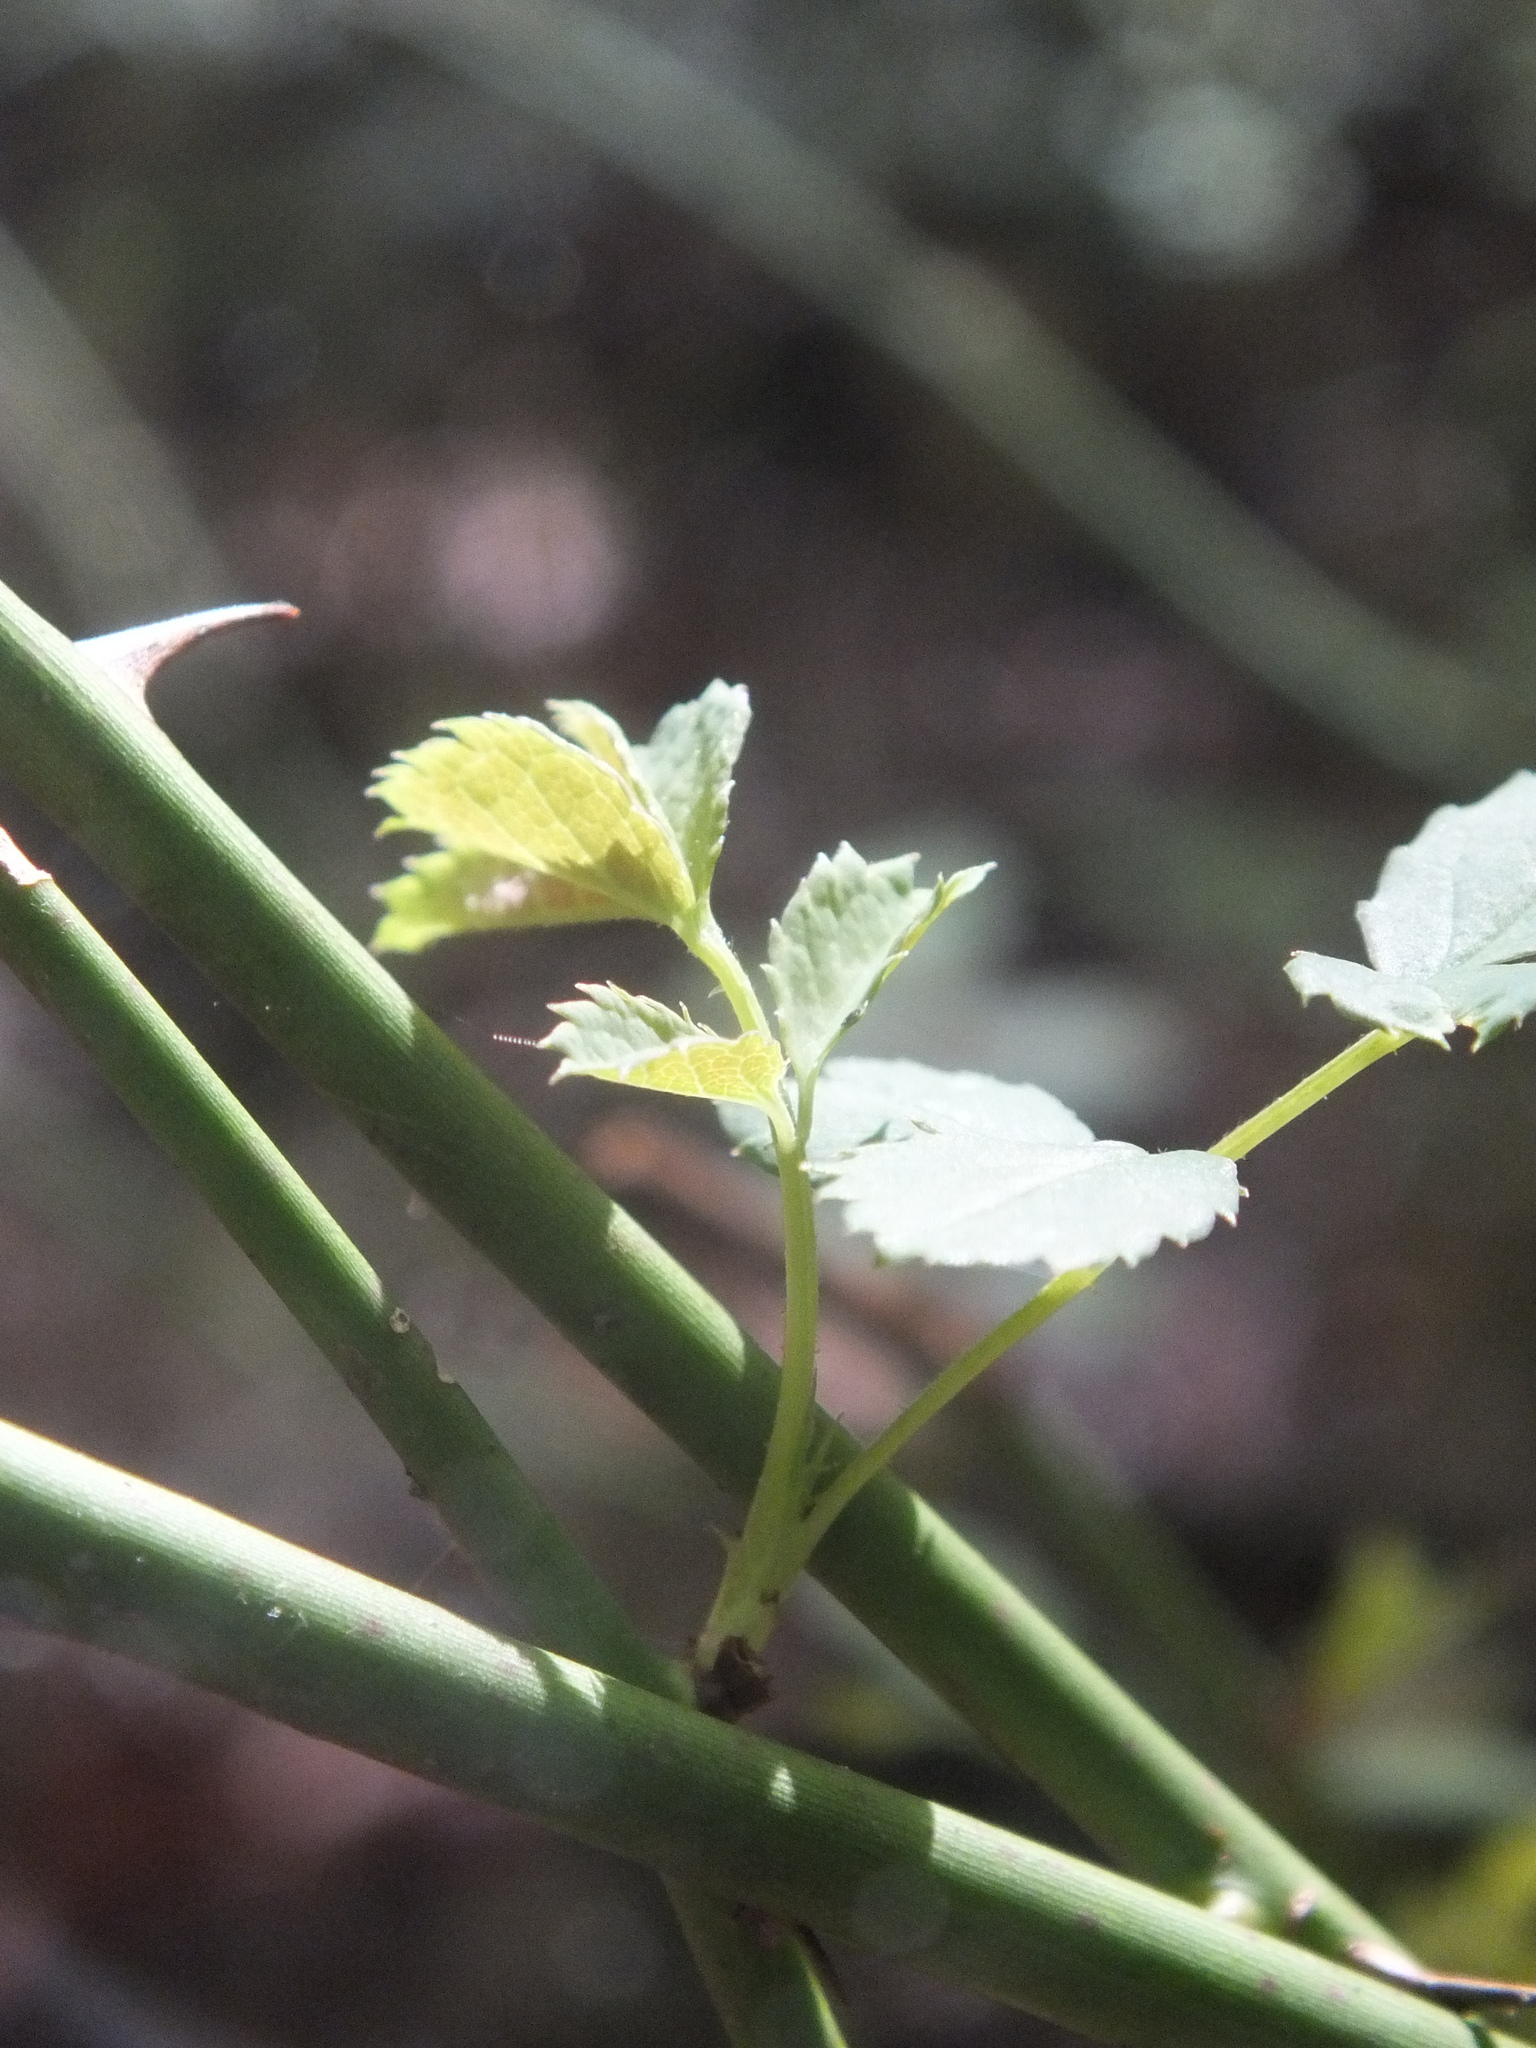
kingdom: Plantae
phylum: Tracheophyta
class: Magnoliopsida
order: Rosales
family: Rosaceae
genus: Rosa
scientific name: Rosa multiflora
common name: Multiflora rose
